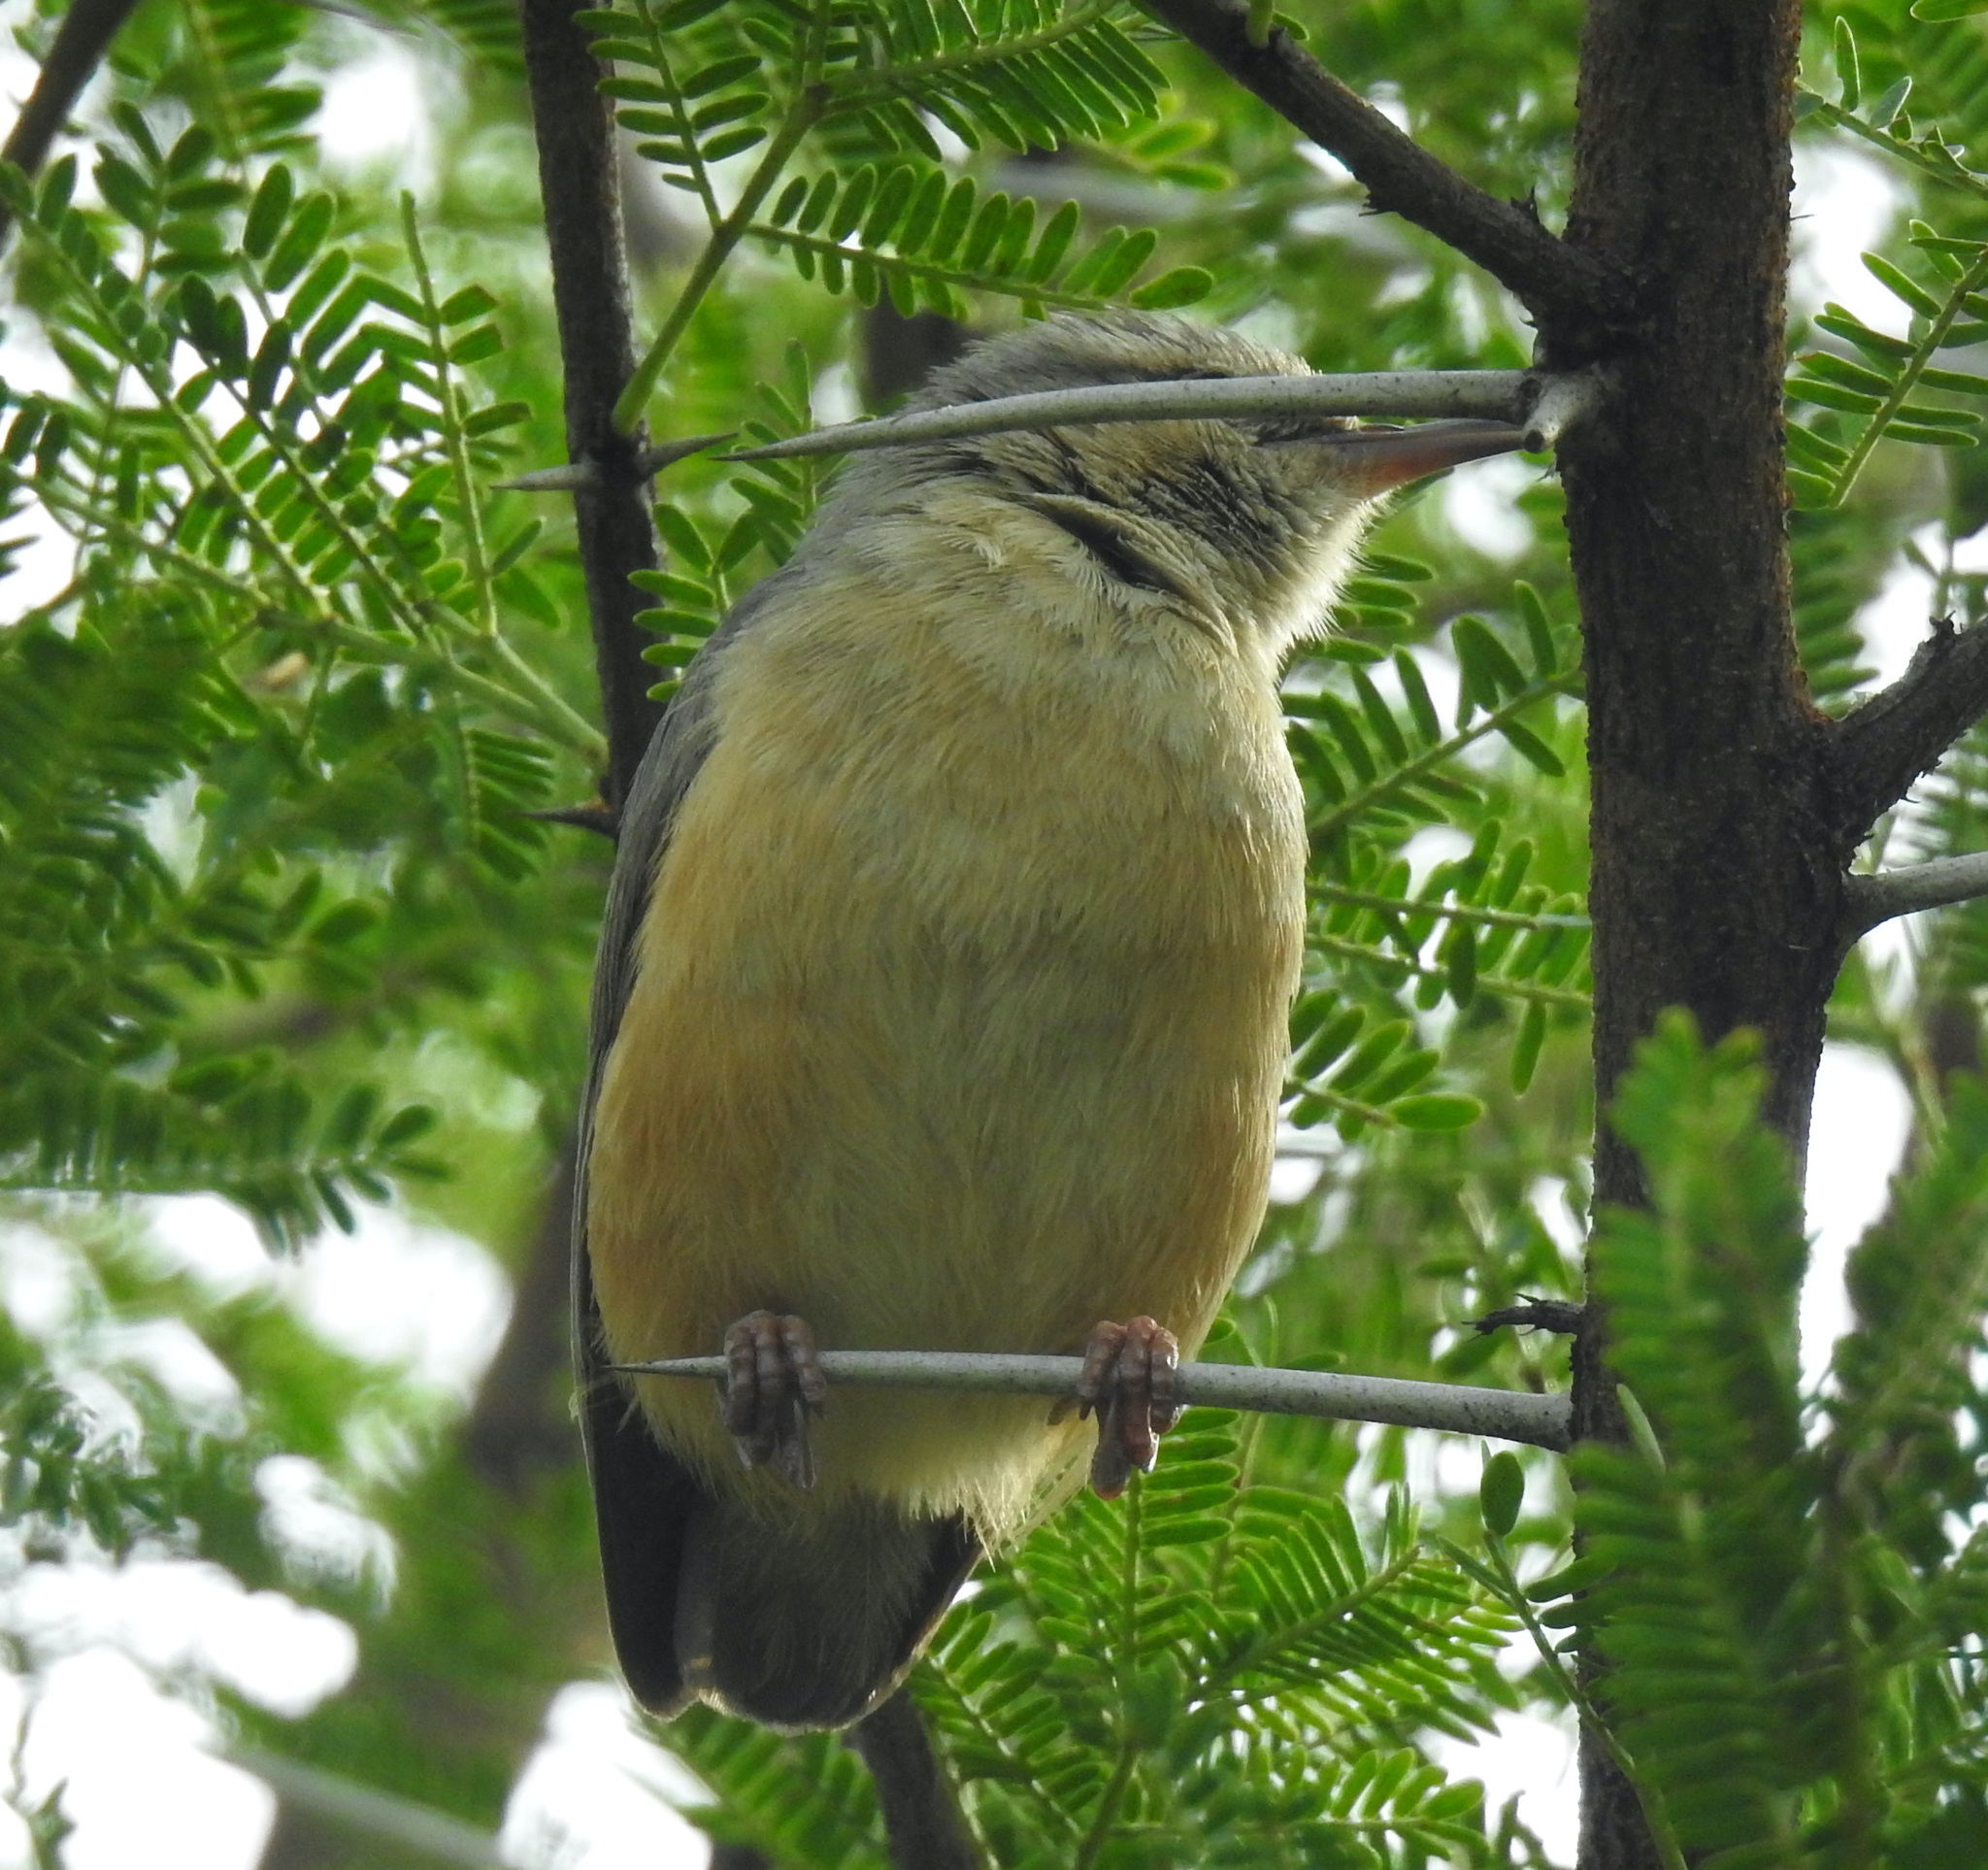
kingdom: Animalia
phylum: Chordata
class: Aves
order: Passeriformes
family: Macrosphenidae
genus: Sylvietta
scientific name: Sylvietta rufescens
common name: Long-billed crombec
